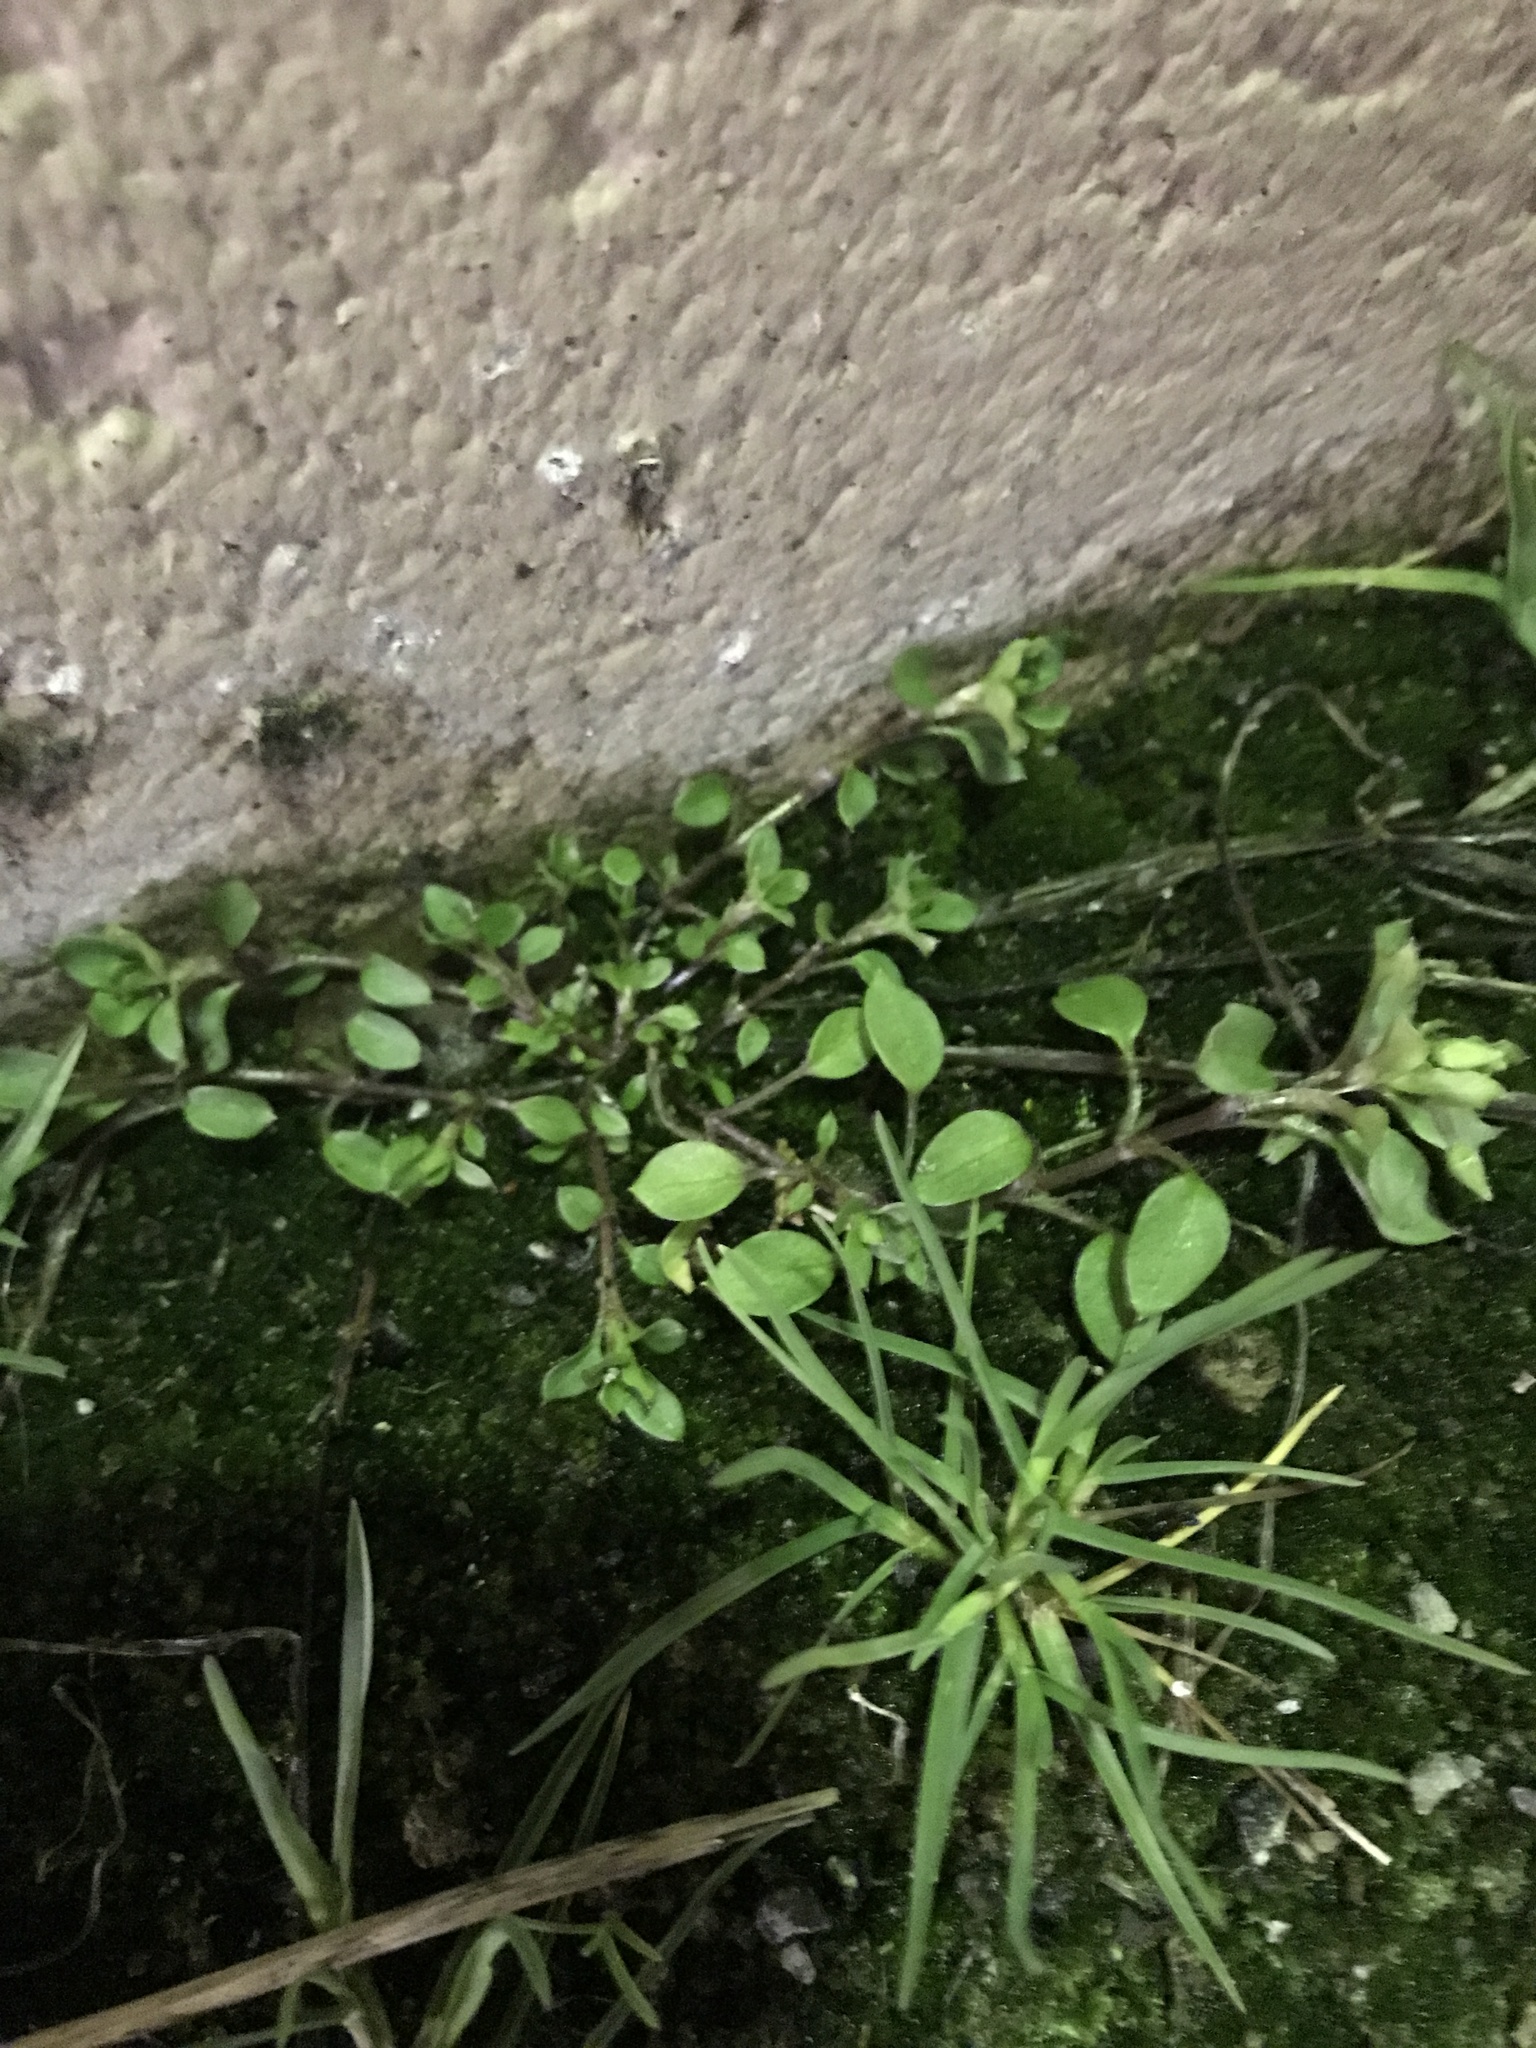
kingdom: Plantae
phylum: Tracheophyta
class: Magnoliopsida
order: Caryophyllales
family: Caryophyllaceae
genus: Stellaria
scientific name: Stellaria media
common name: Common chickweed
